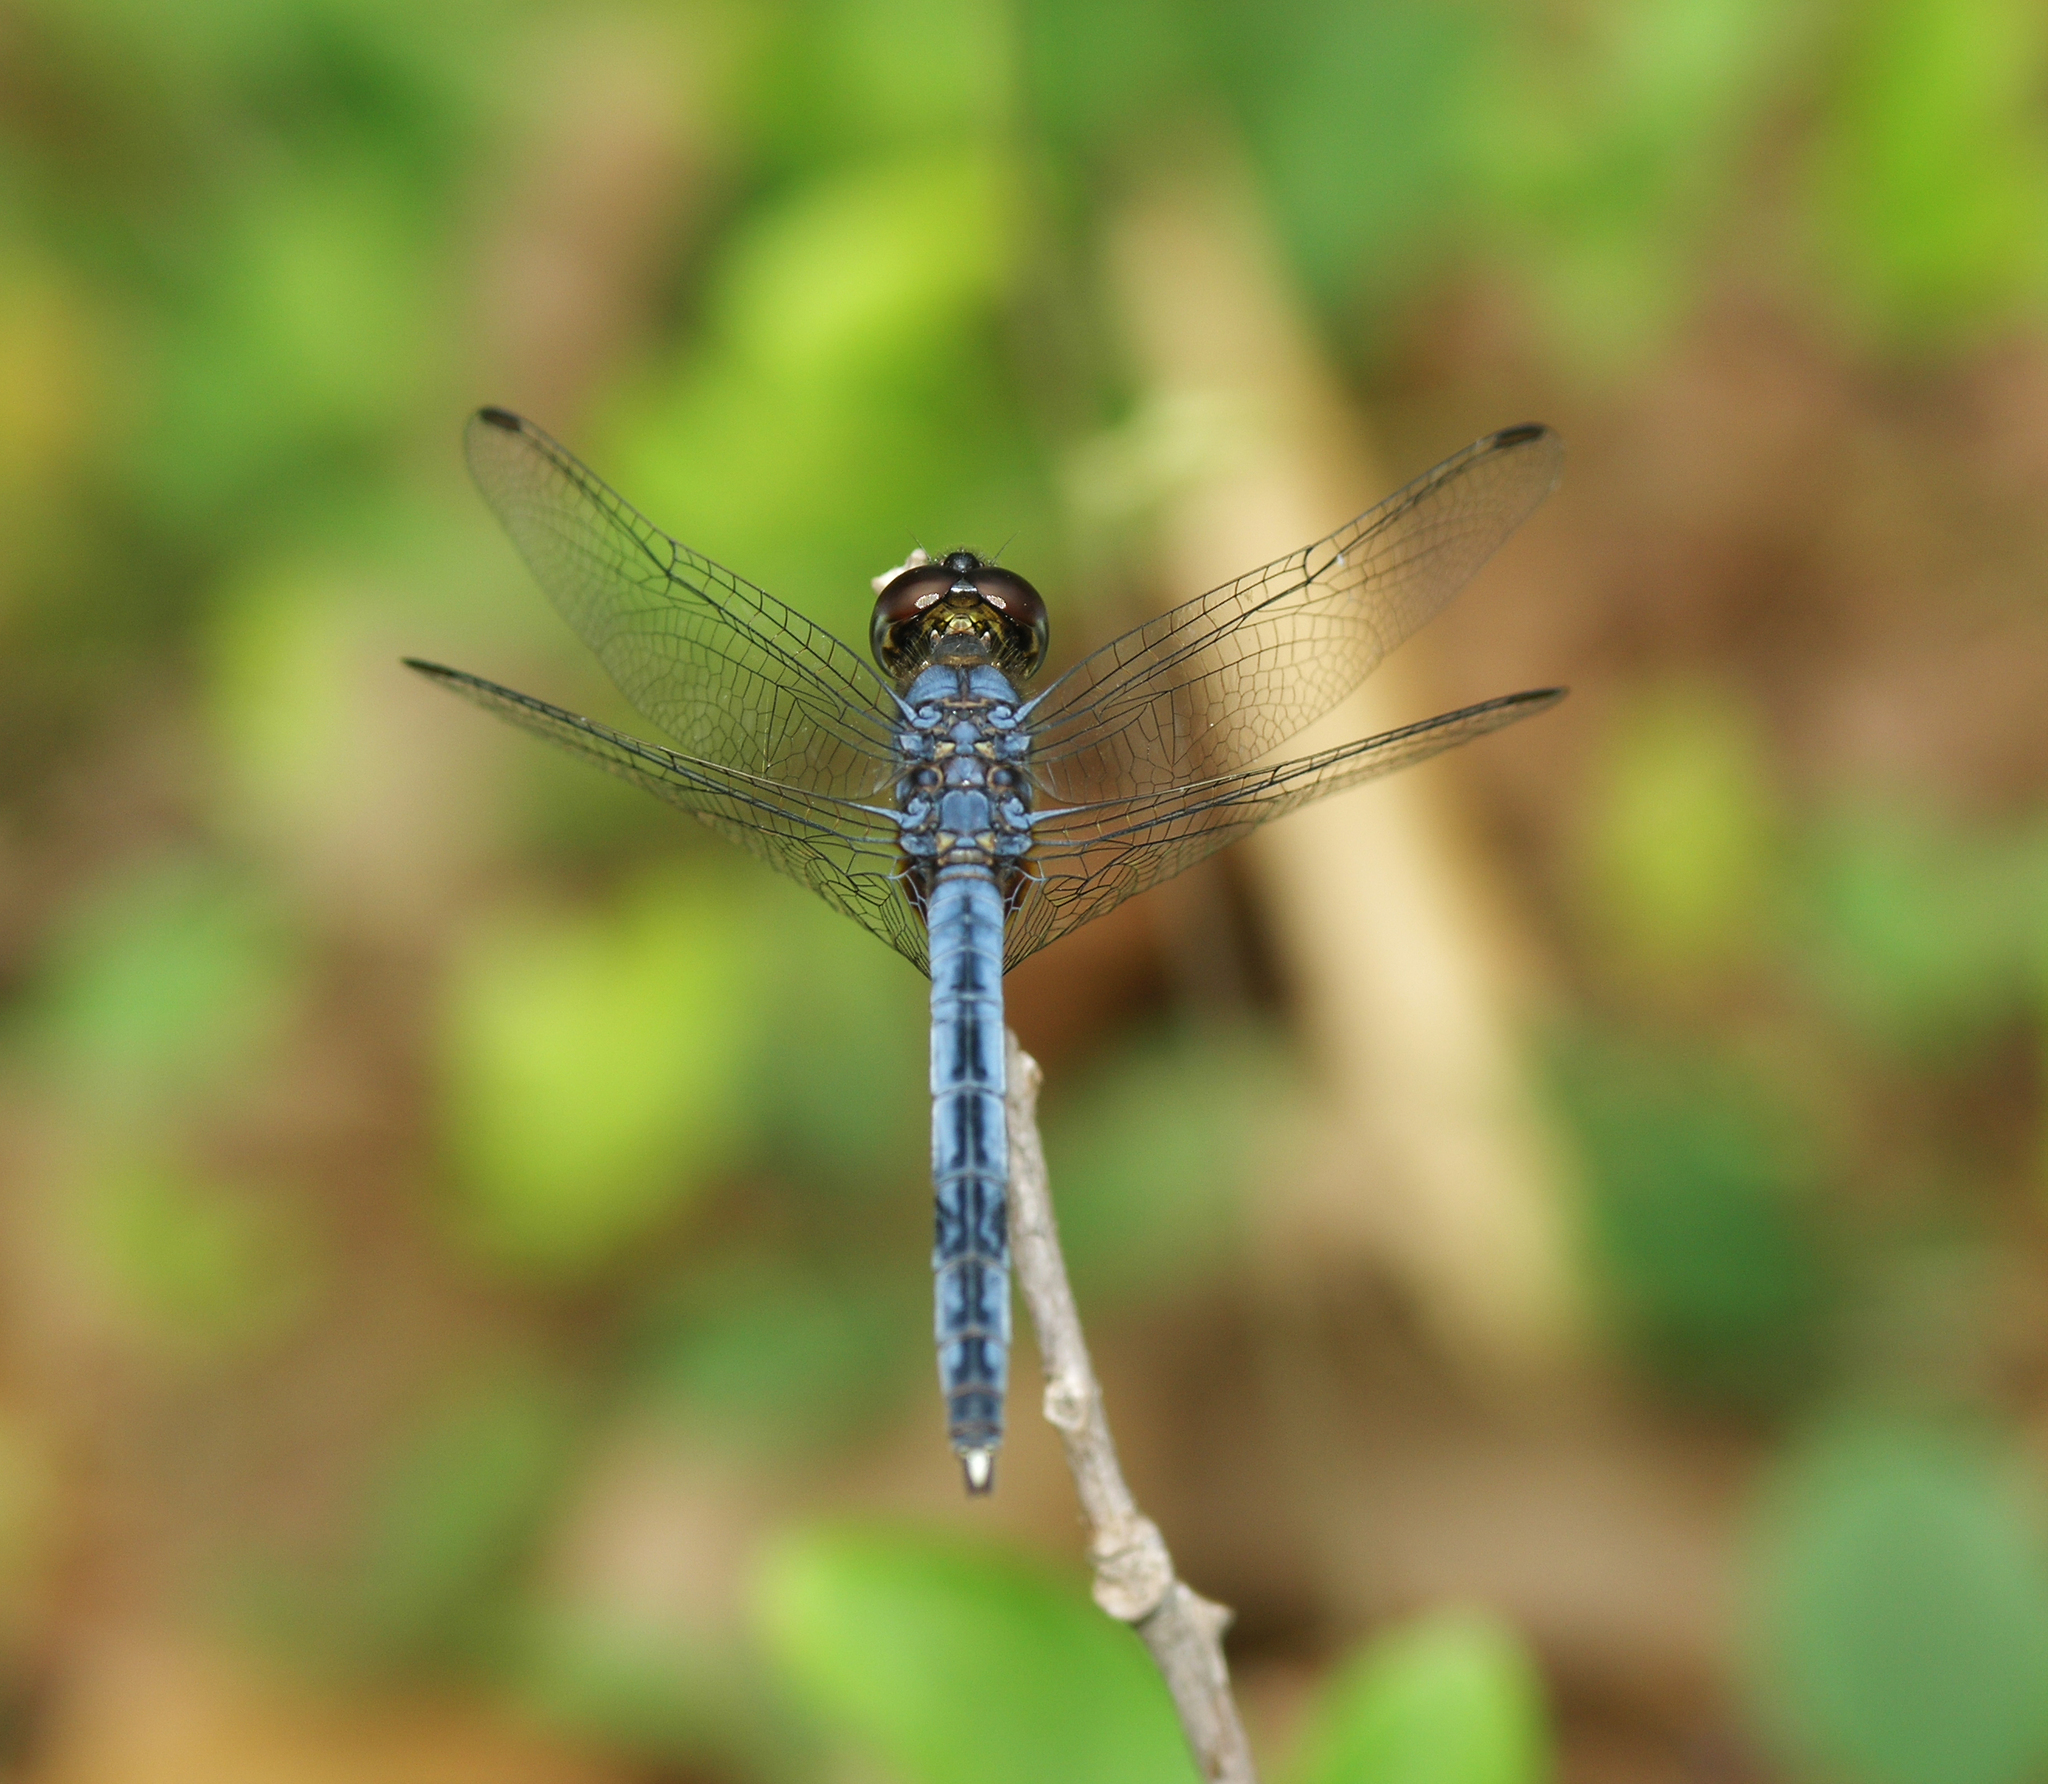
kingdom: Animalia
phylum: Arthropoda
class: Insecta
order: Odonata
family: Libellulidae
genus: Indothemis
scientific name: Indothemis carnatica
